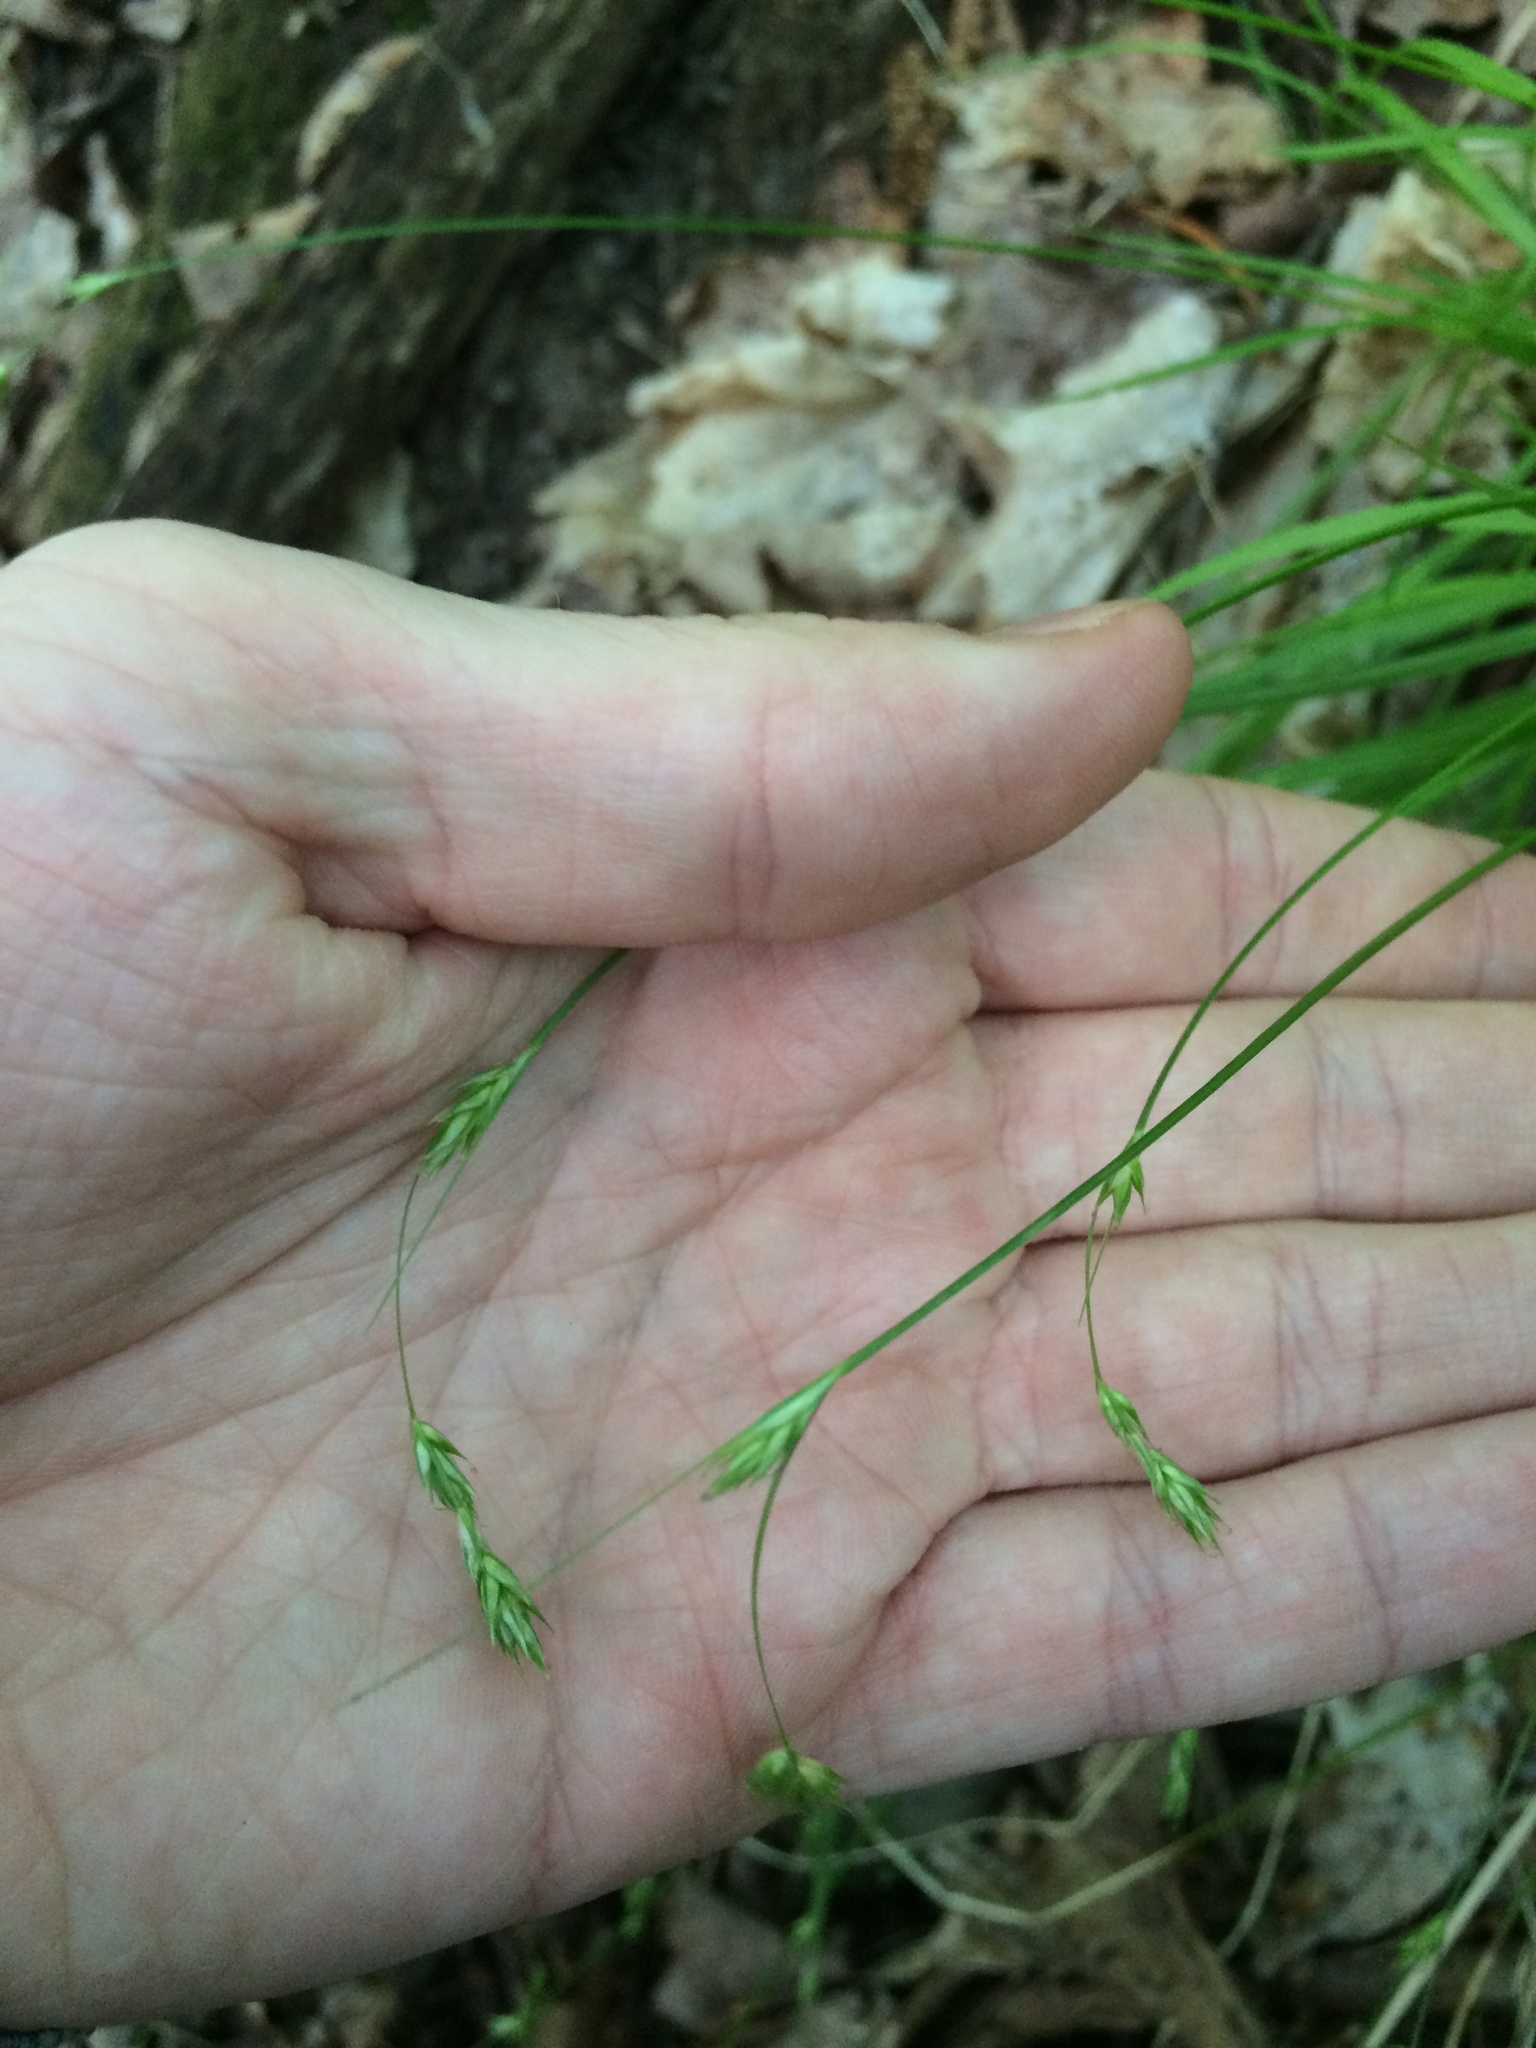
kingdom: Plantae
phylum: Tracheophyta
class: Liliopsida
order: Poales
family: Cyperaceae
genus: Carex
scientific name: Carex deweyana
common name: Dewey's sedge
